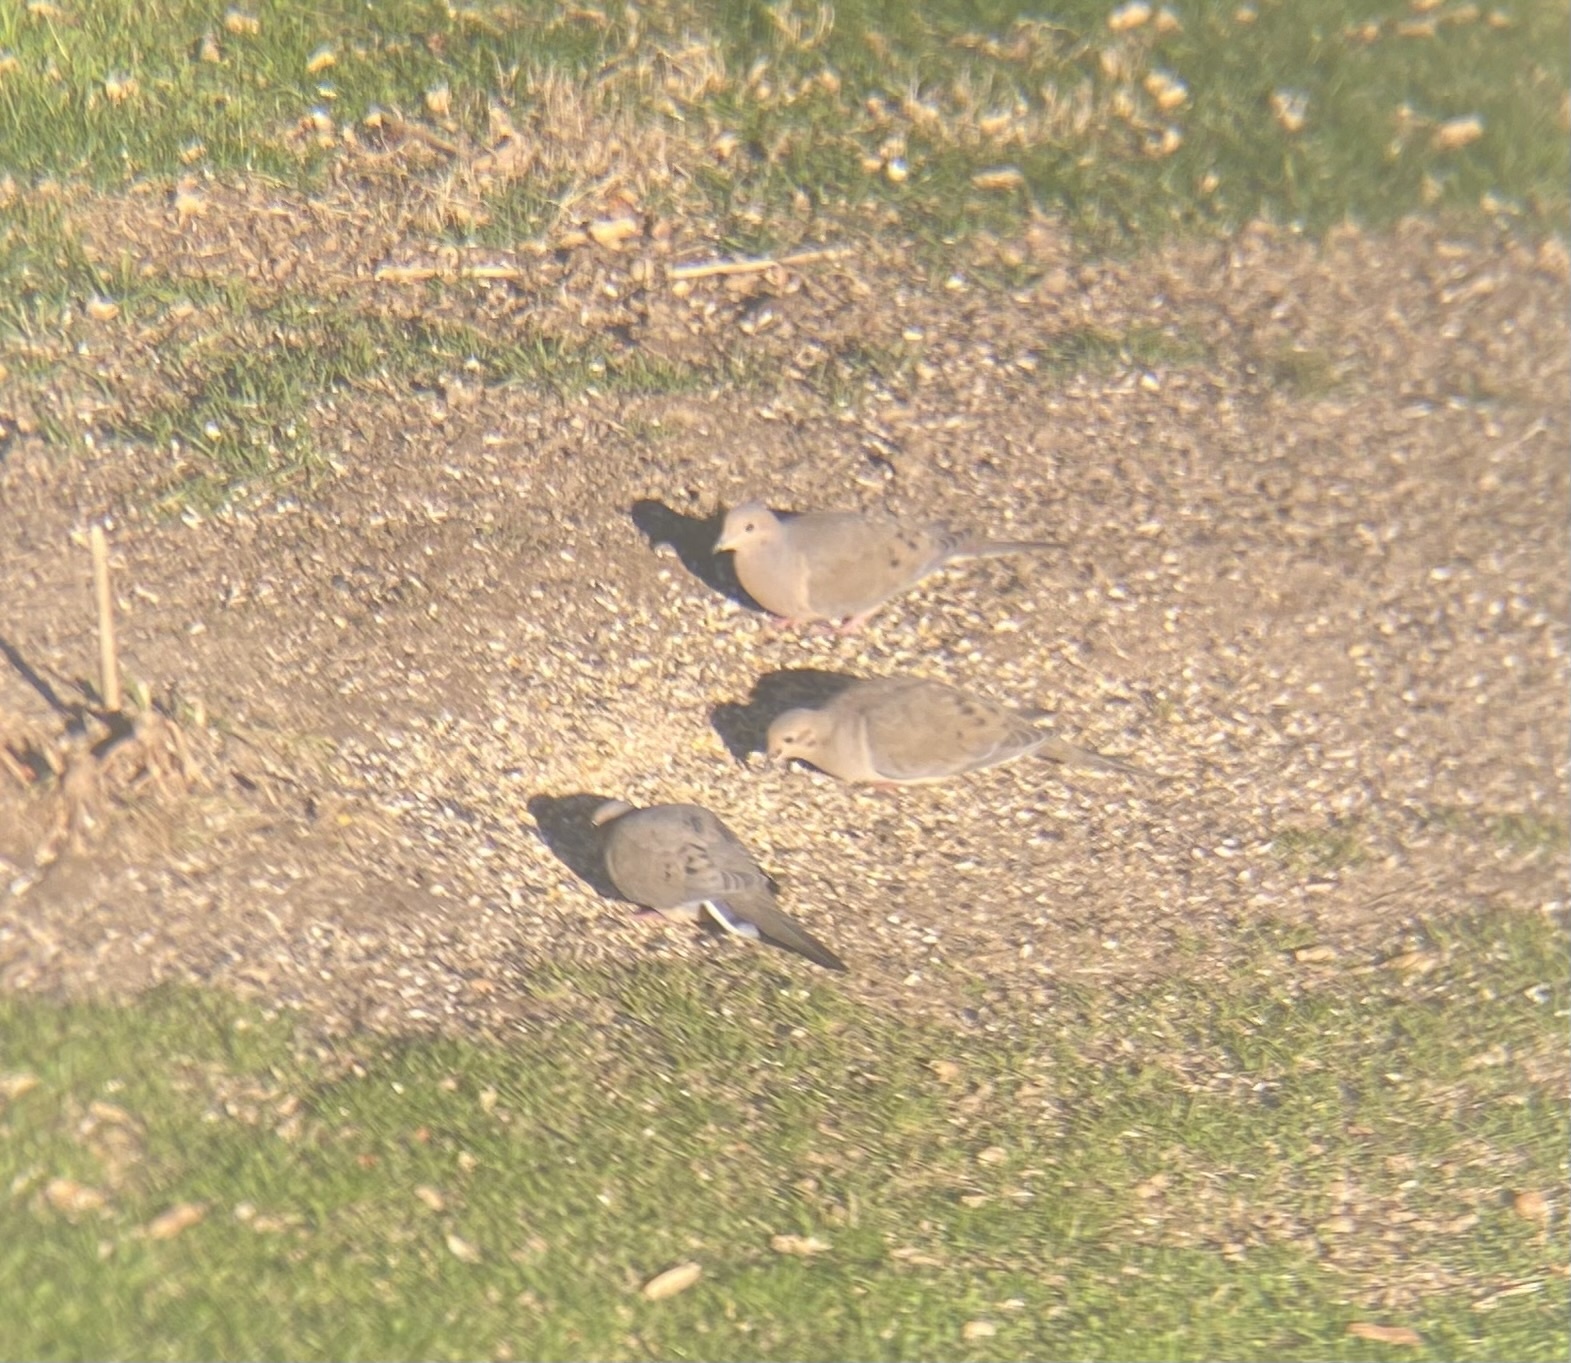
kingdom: Animalia
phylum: Chordata
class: Aves
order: Columbiformes
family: Columbidae
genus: Zenaida
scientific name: Zenaida macroura
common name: Mourning dove
